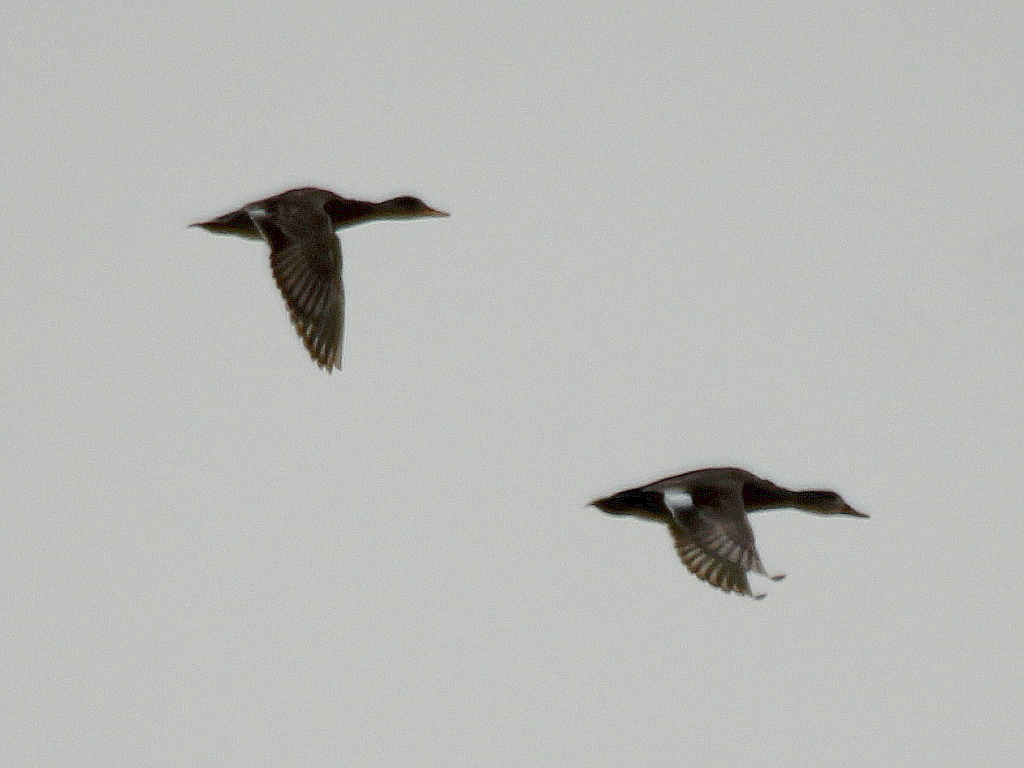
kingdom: Animalia
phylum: Chordata
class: Aves
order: Anseriformes
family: Anatidae
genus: Mareca
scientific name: Mareca strepera
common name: Gadwall
